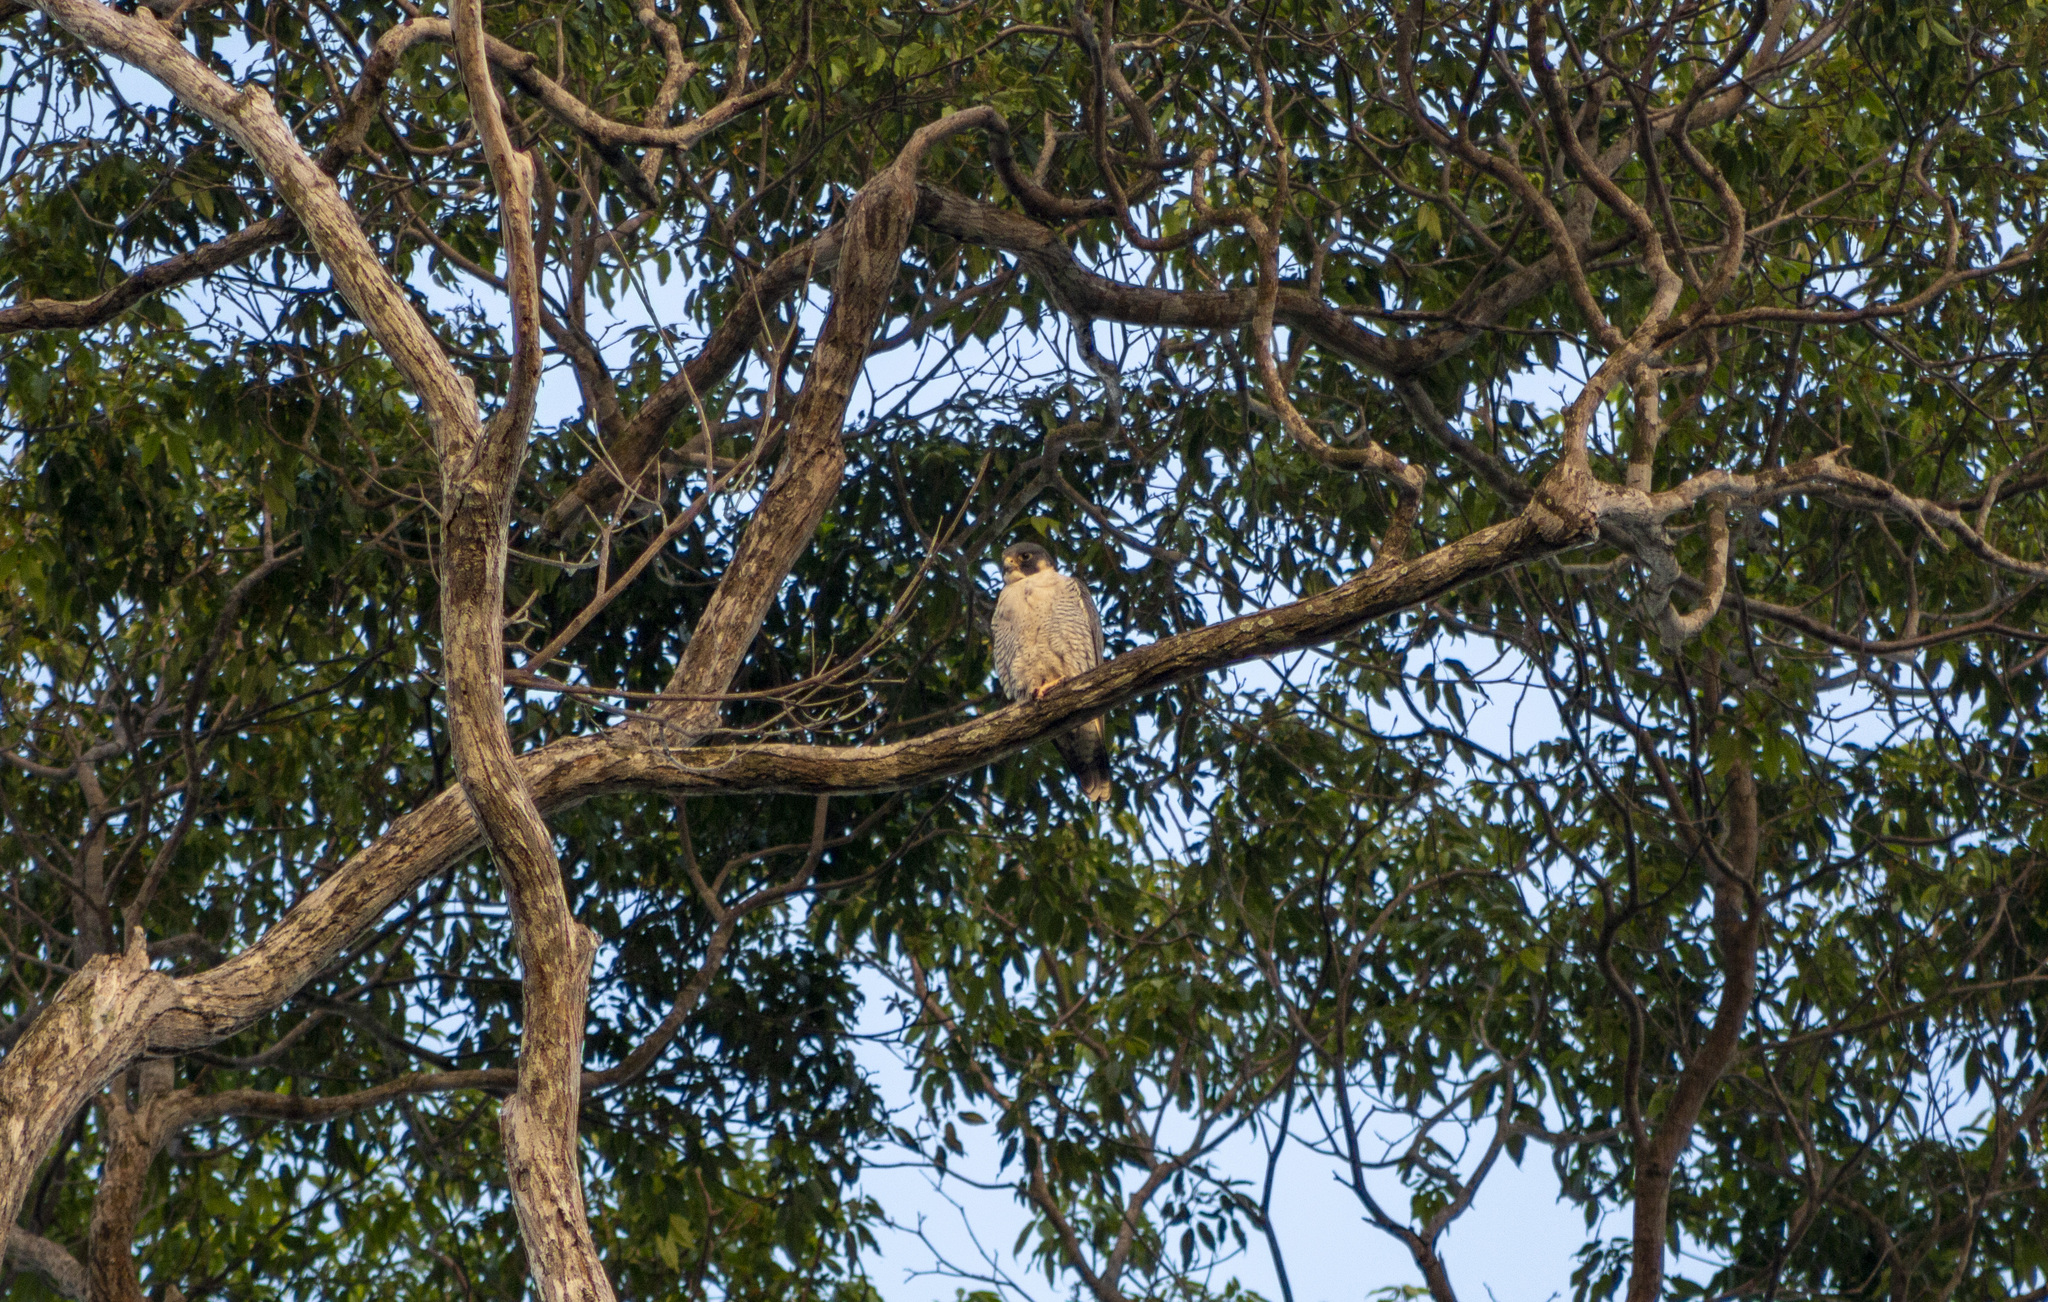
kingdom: Animalia
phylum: Chordata
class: Aves
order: Falconiformes
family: Falconidae
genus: Falco
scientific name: Falco peregrinus
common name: Peregrine falcon
